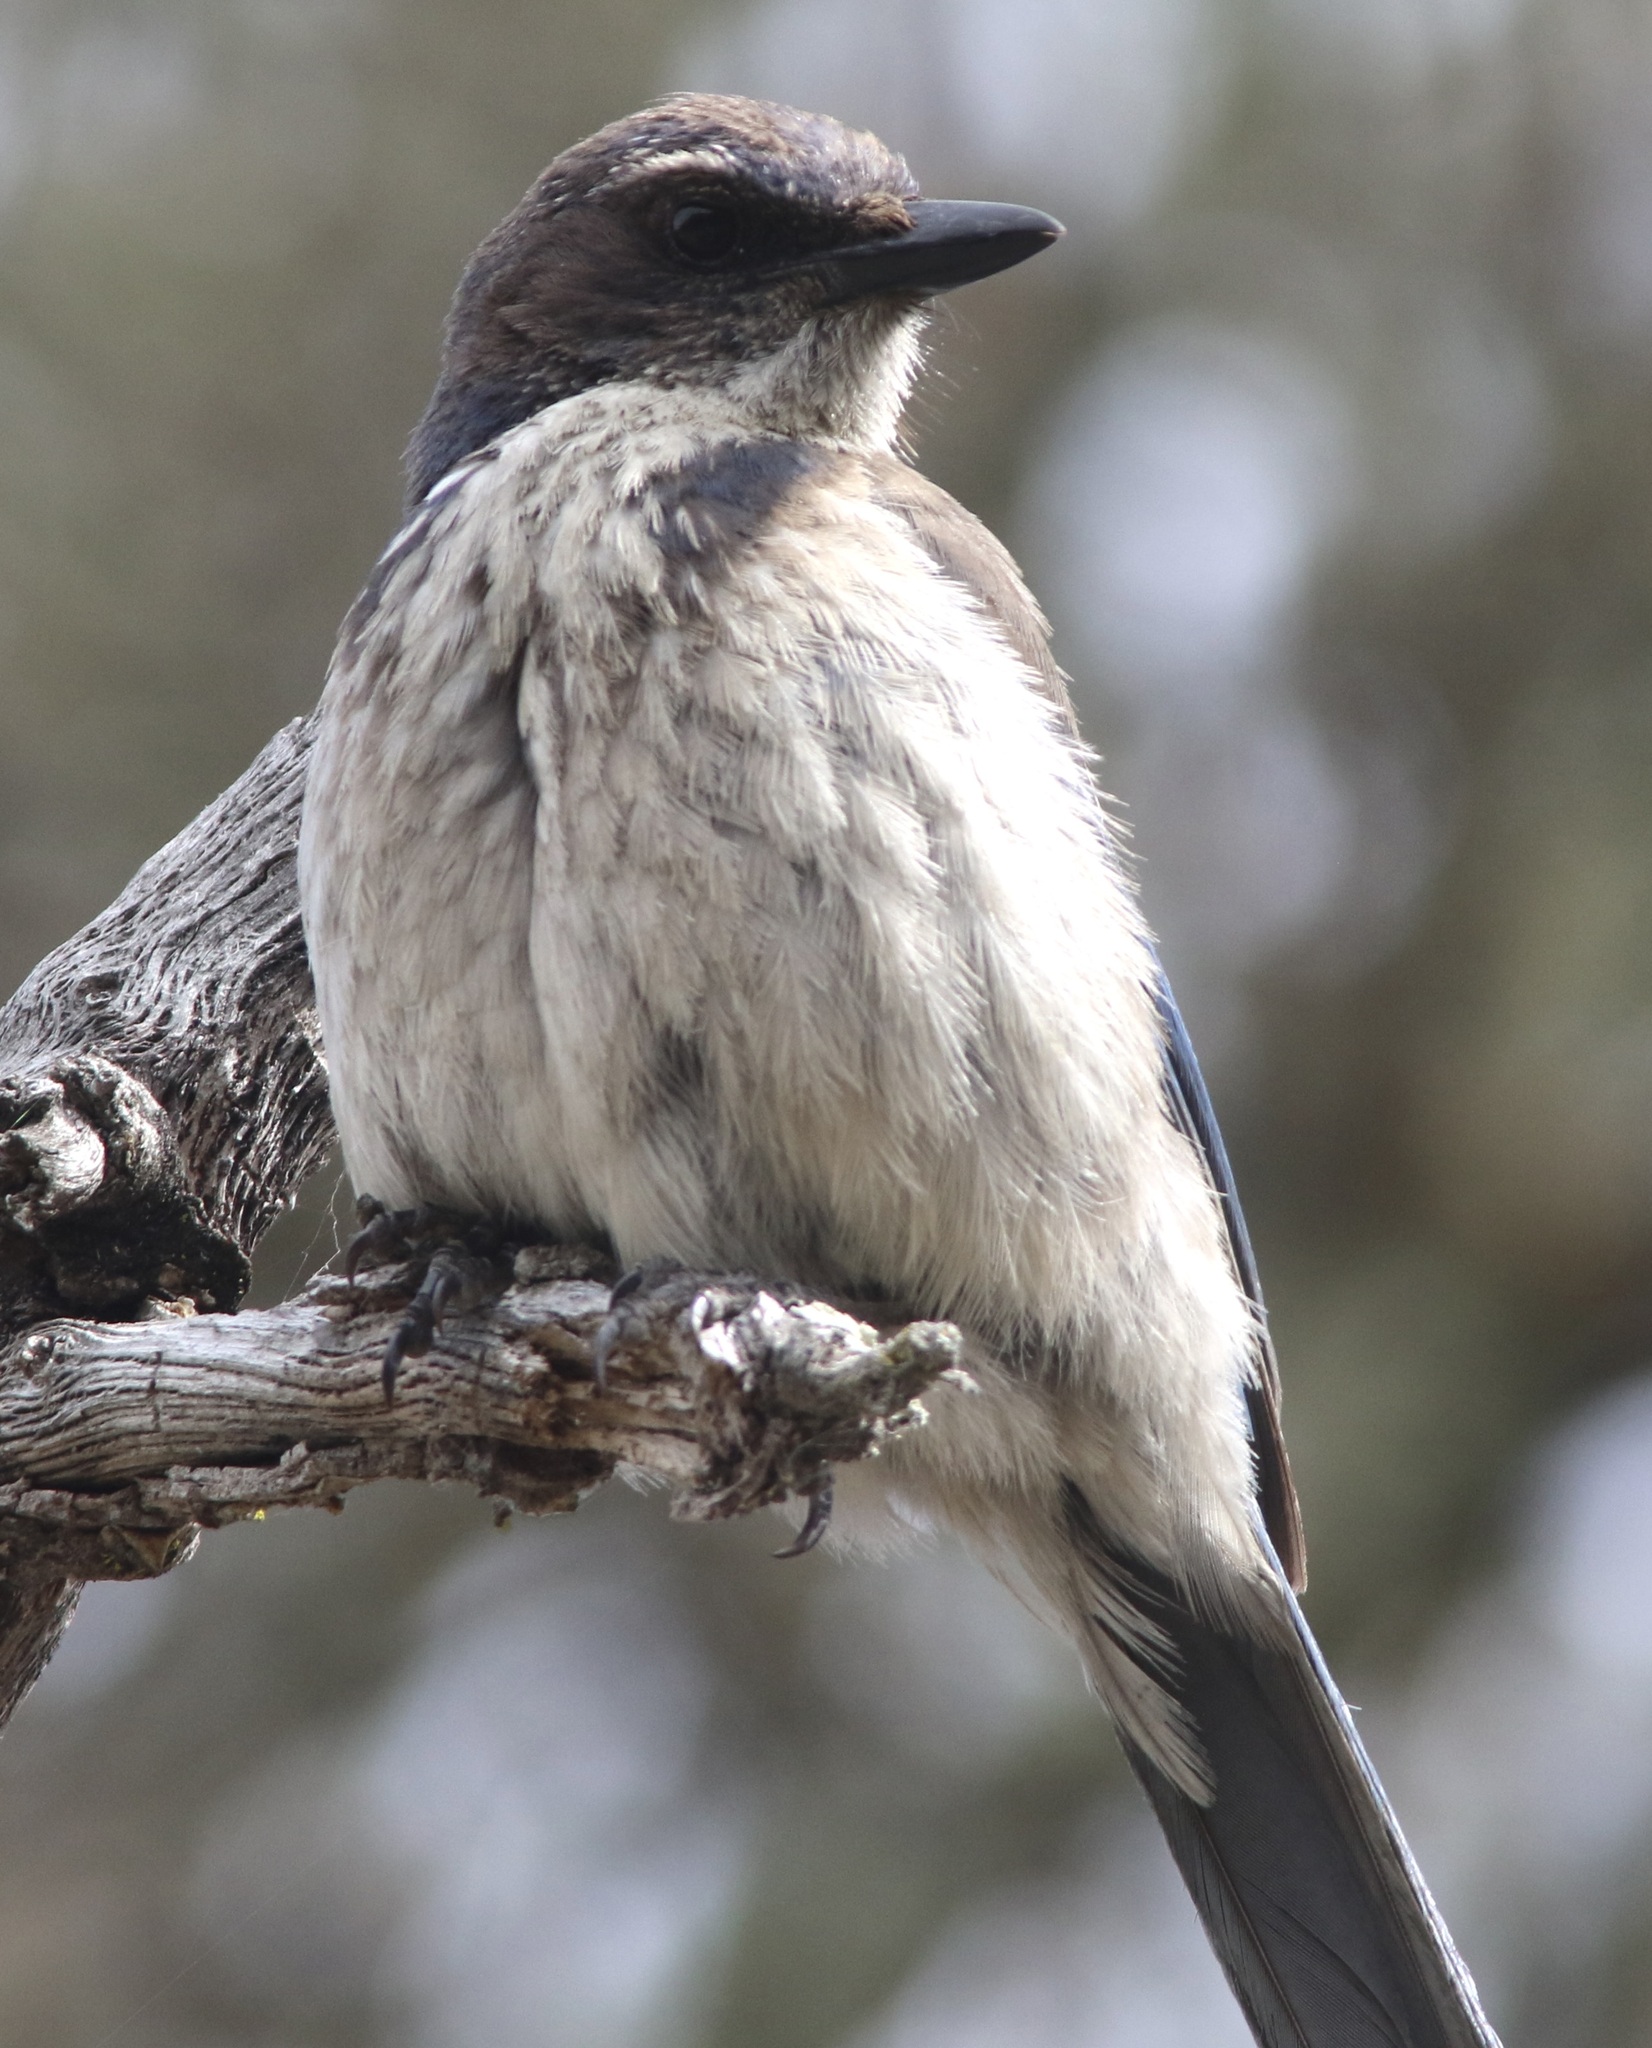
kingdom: Animalia
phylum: Chordata
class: Aves
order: Passeriformes
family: Corvidae
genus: Aphelocoma
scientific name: Aphelocoma californica
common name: California scrub-jay
